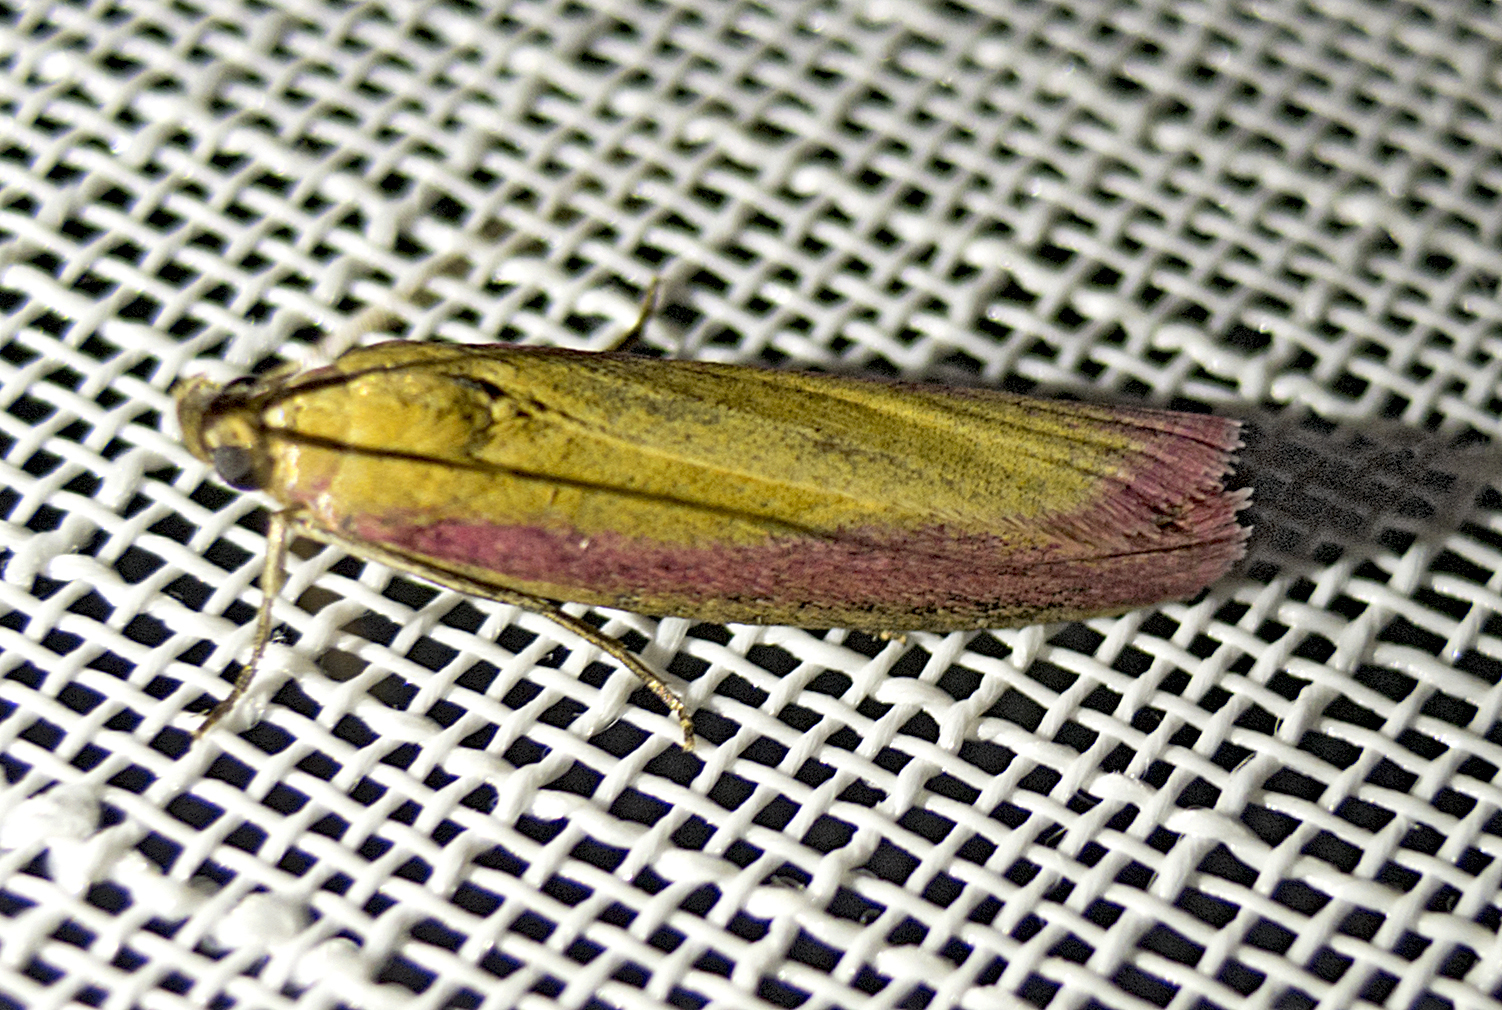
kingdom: Animalia
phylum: Arthropoda
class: Insecta
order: Lepidoptera
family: Pyralidae
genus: Oncocera
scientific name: Oncocera semirubella
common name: Rosy-striped knot-horn
